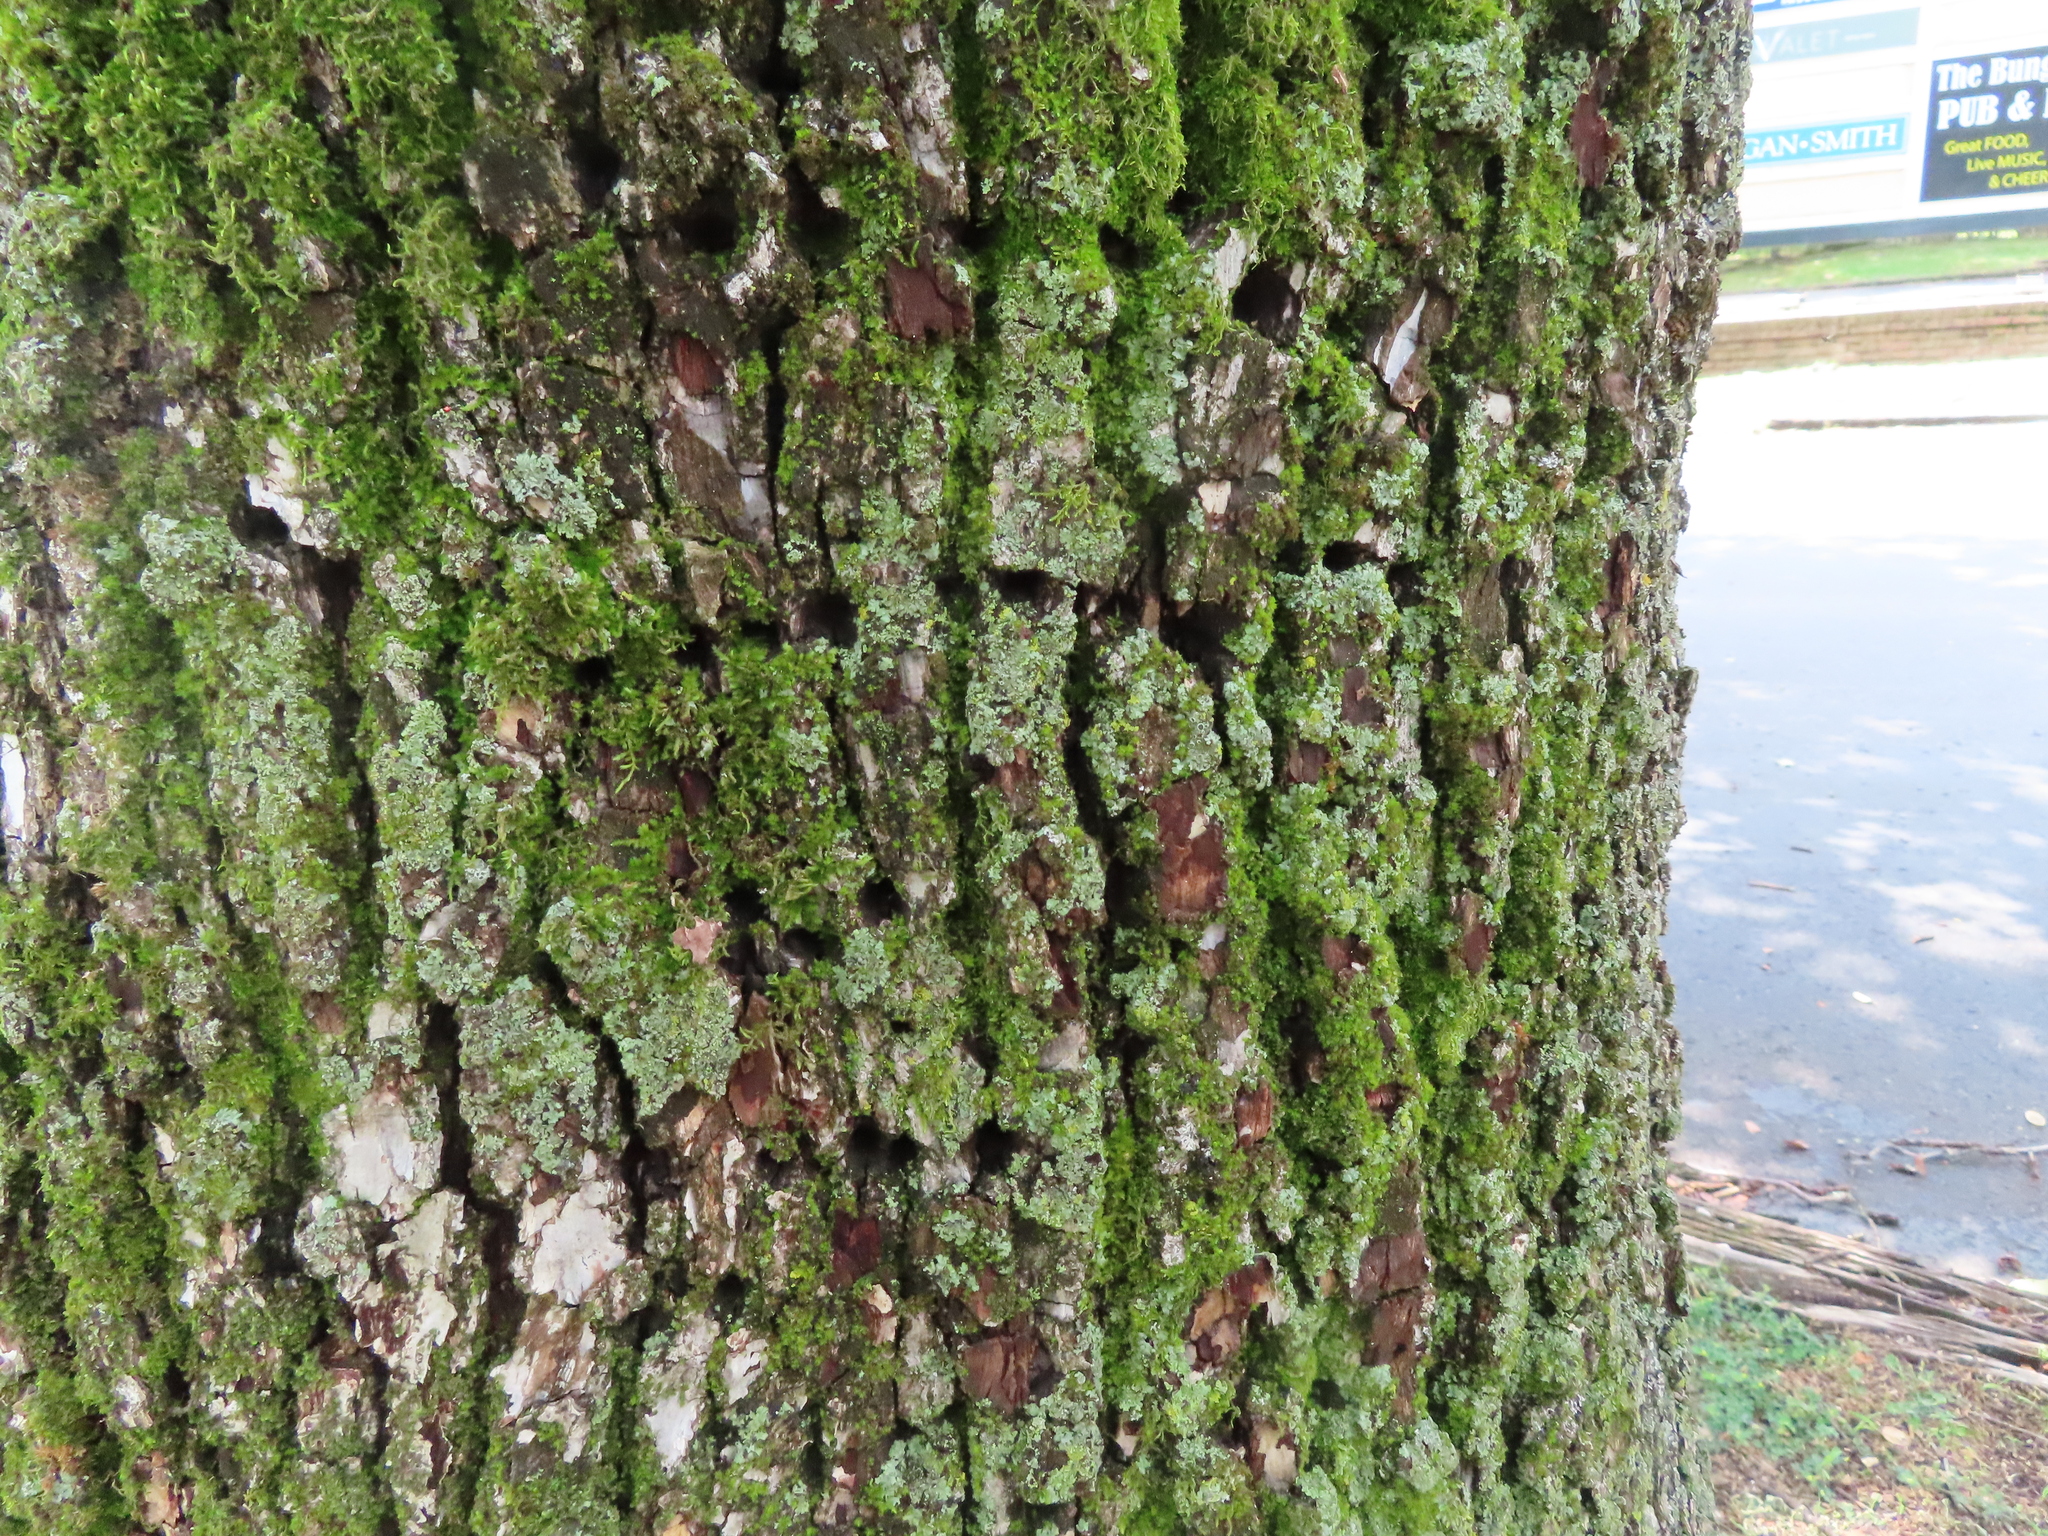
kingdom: Animalia
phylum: Chordata
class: Aves
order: Piciformes
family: Picidae
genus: Sphyrapicus
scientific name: Sphyrapicus varius
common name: Yellow-bellied sapsucker
